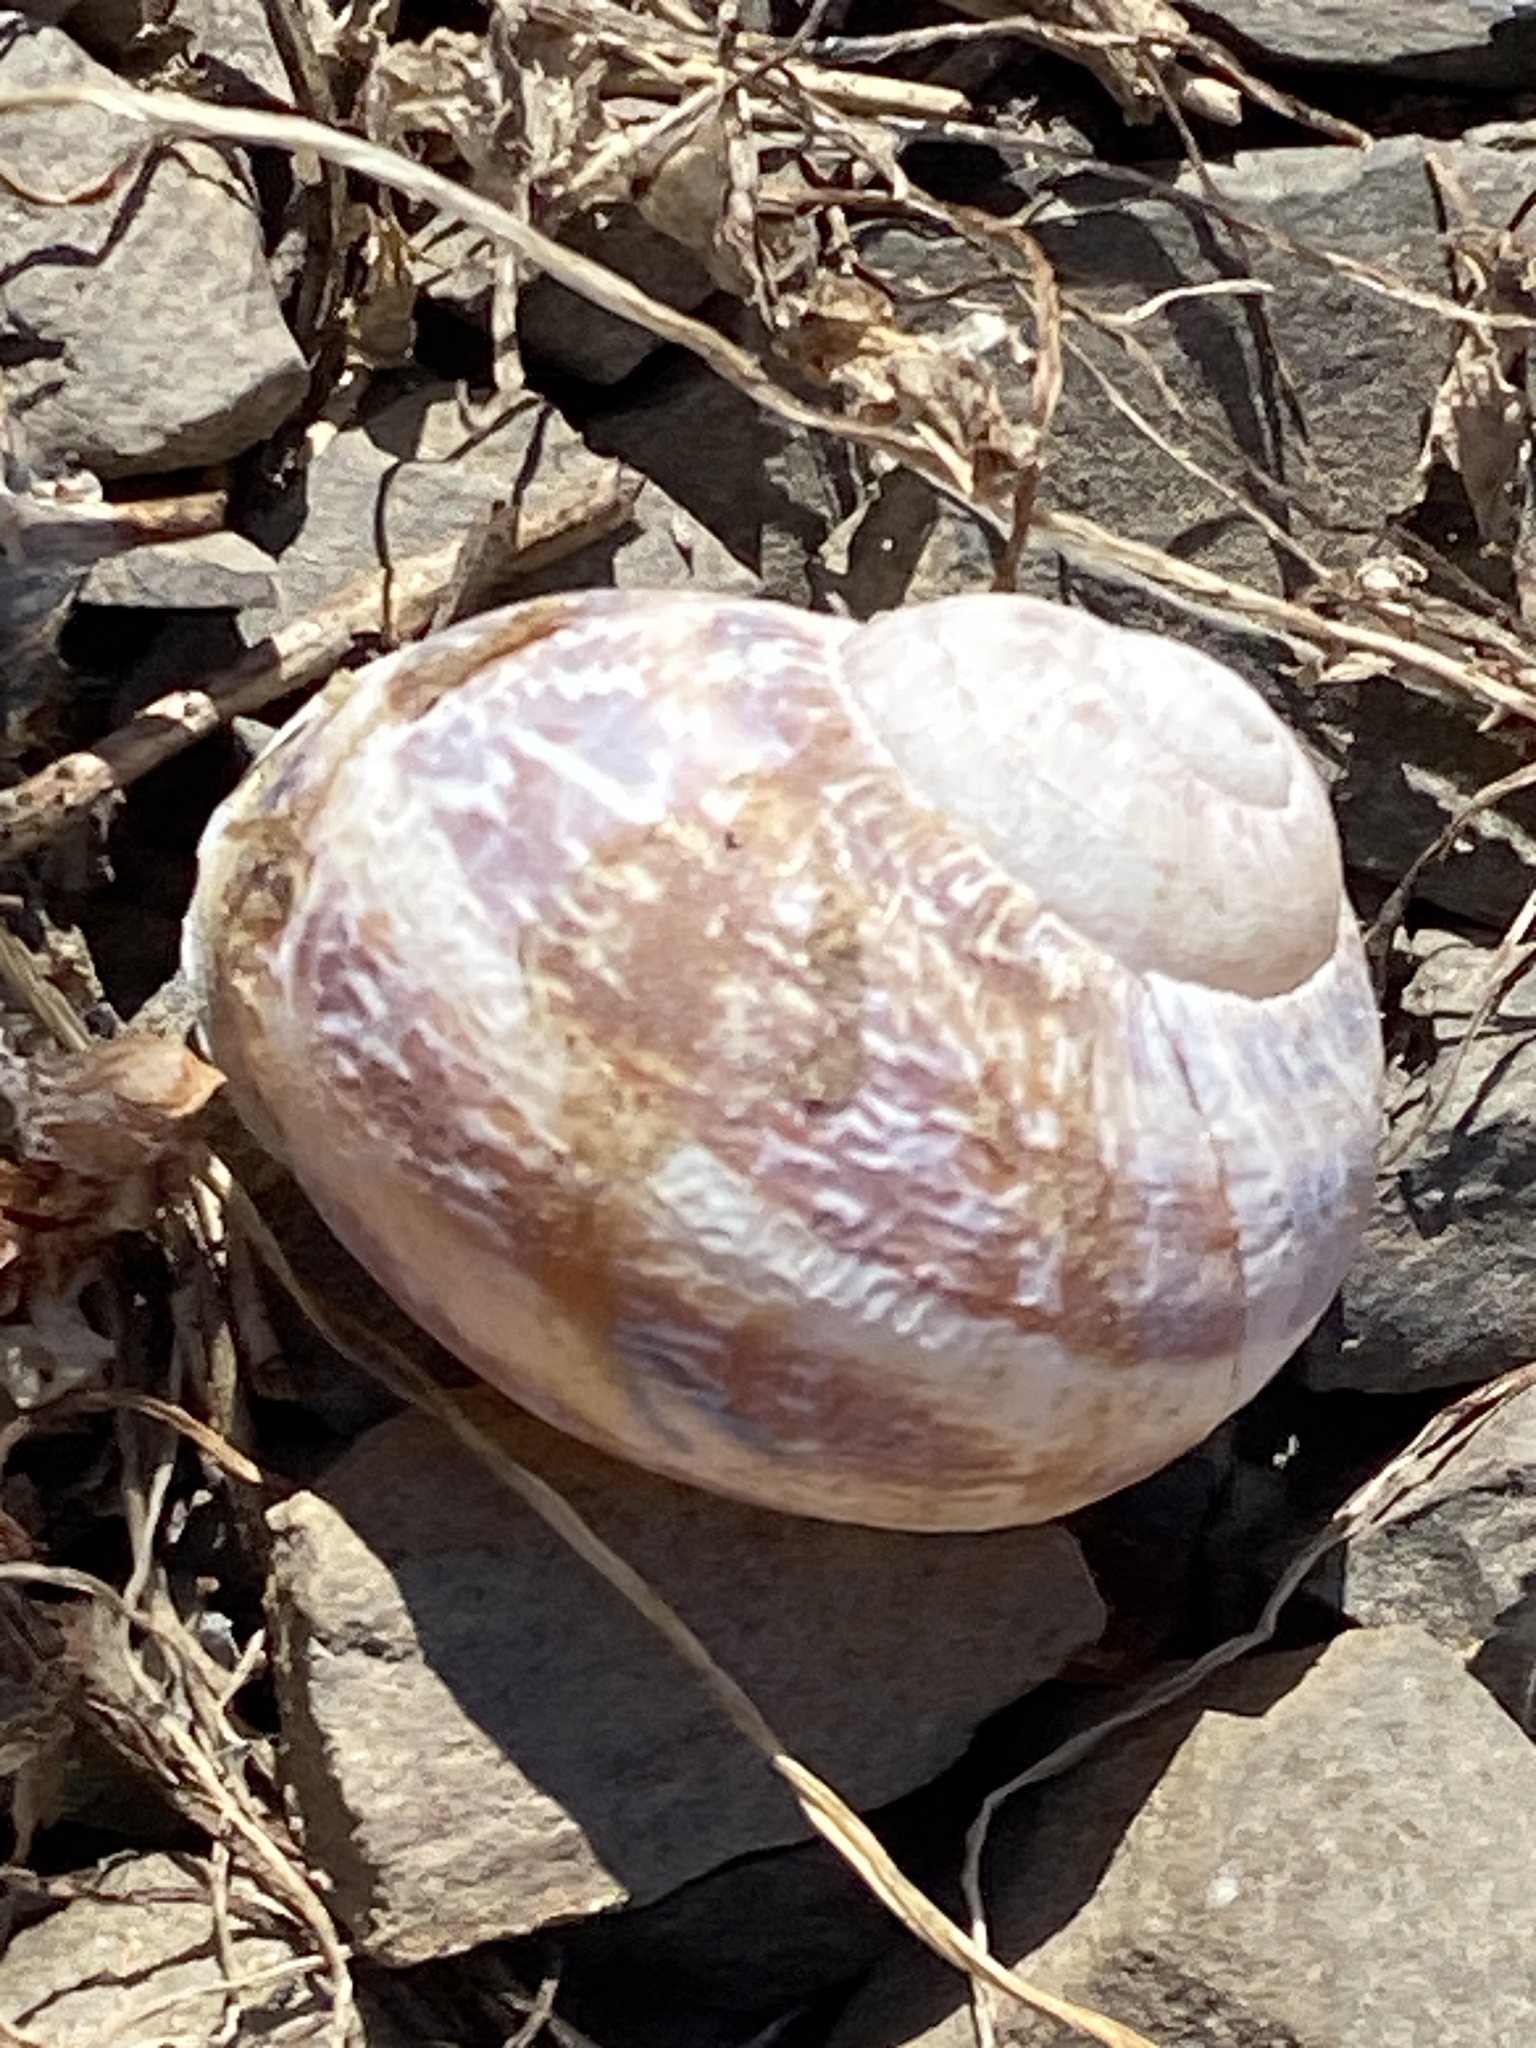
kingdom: Animalia
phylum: Mollusca
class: Gastropoda
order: Stylommatophora
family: Helicidae
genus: Cornu
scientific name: Cornu aspersum
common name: Brown garden snail
